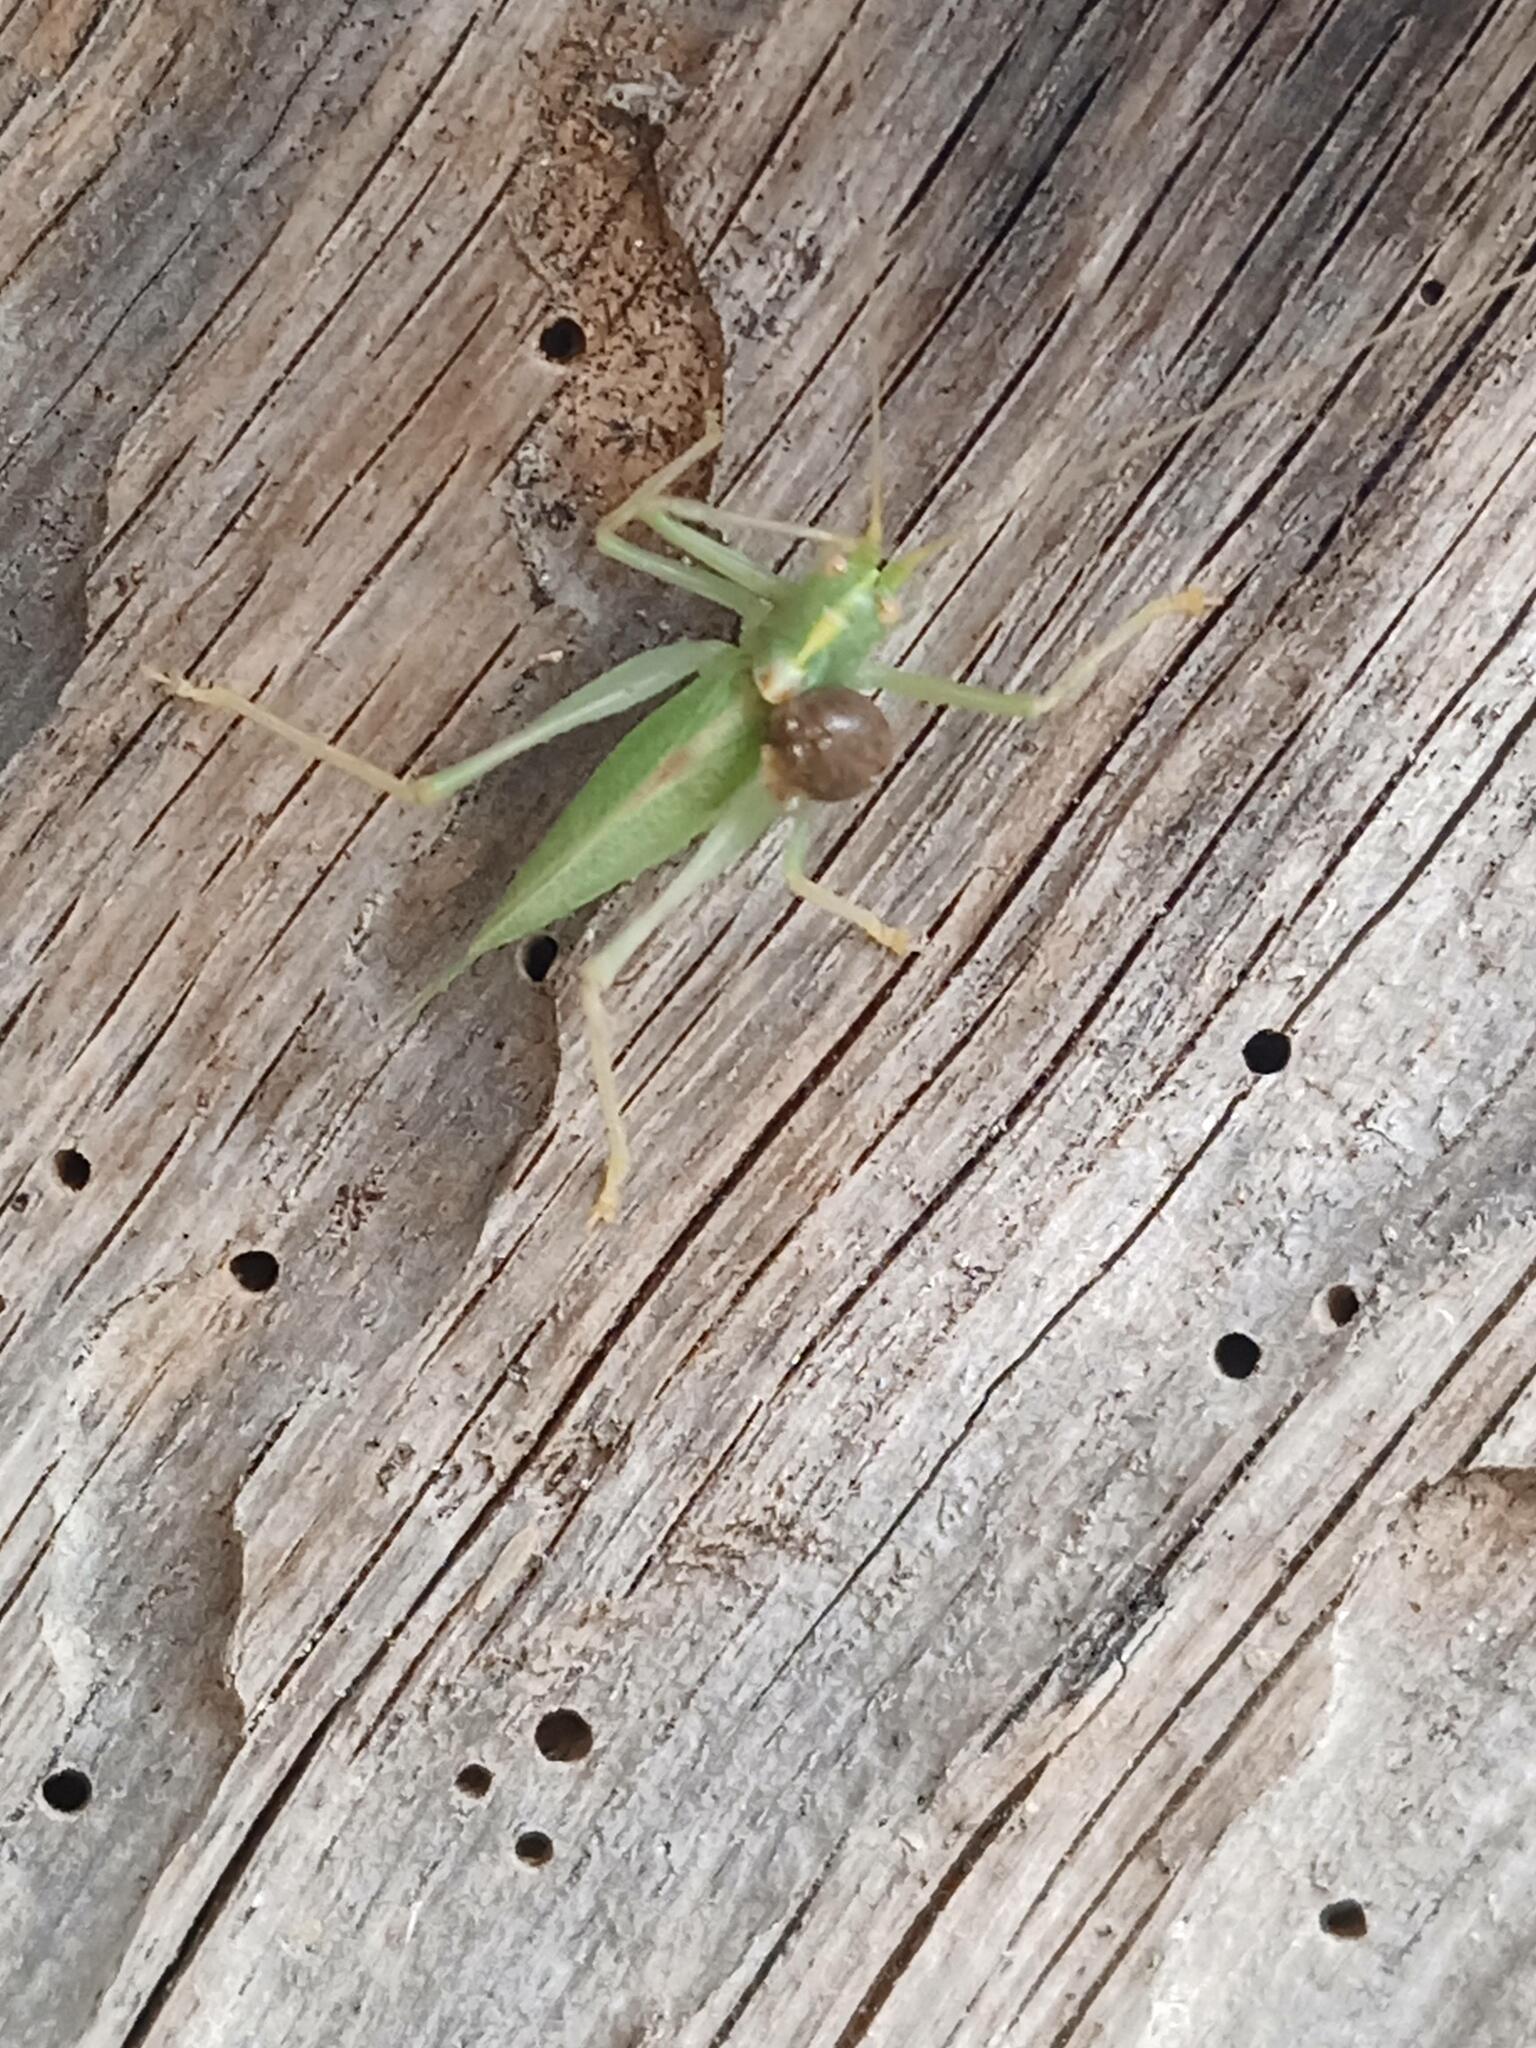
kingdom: Animalia
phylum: Arthropoda
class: Insecta
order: Orthoptera
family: Tettigoniidae
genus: Meconema
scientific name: Meconema thalassinum
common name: Oak bush-cricket
